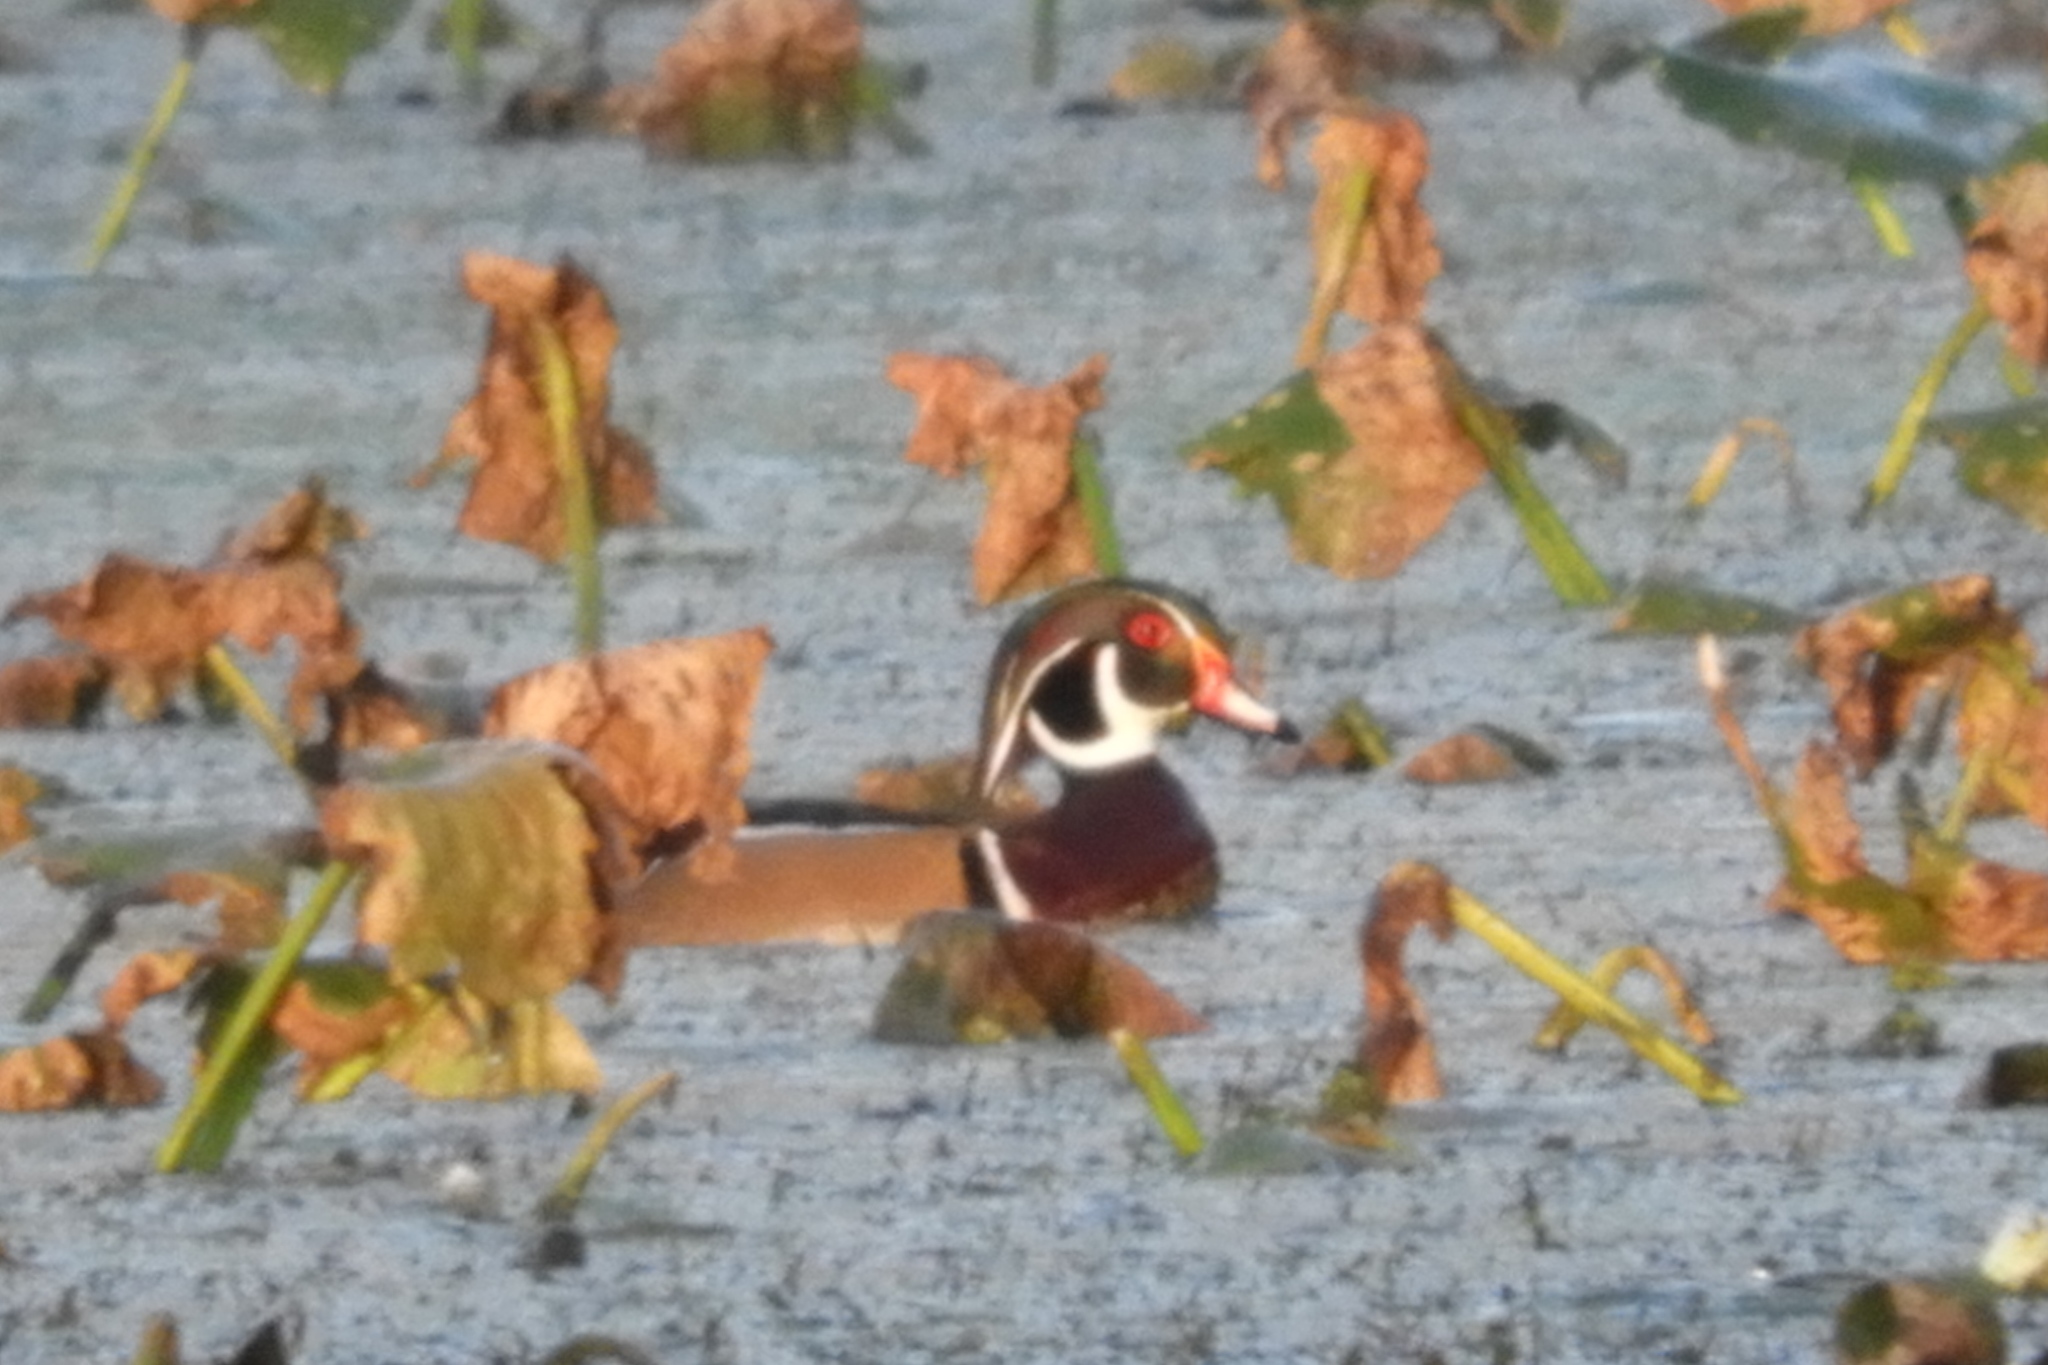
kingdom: Animalia
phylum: Chordata
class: Aves
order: Anseriformes
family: Anatidae
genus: Aix
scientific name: Aix sponsa
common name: Wood duck
